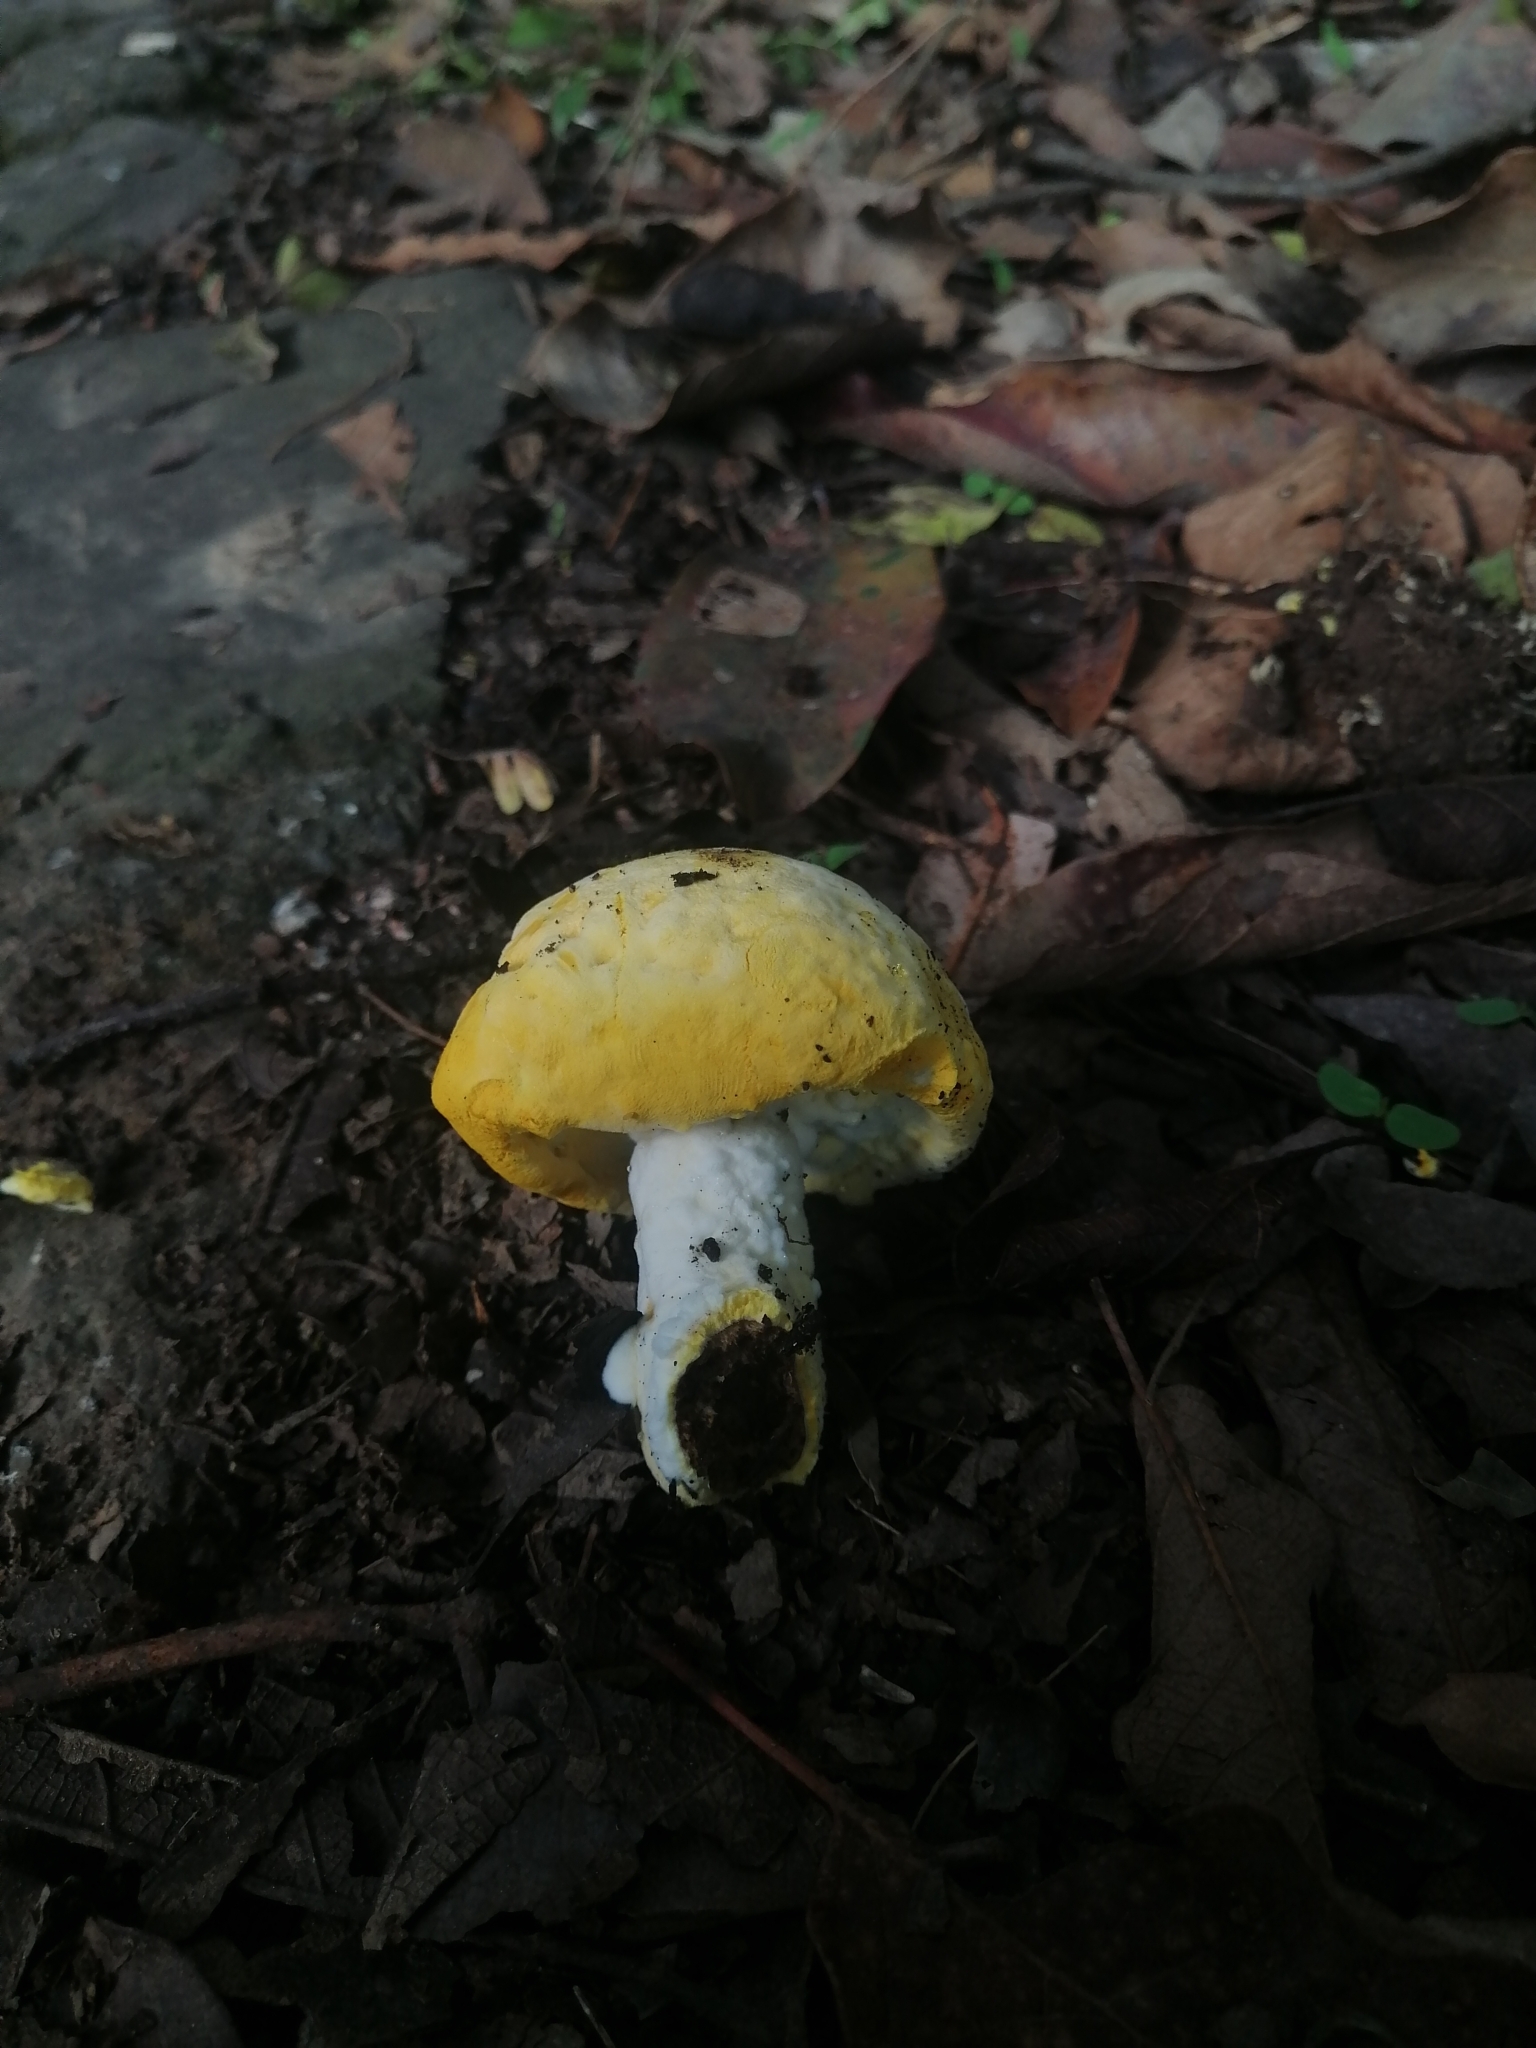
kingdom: Fungi
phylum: Ascomycota
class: Sordariomycetes
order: Hypocreales
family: Hypocreaceae
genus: Hypomyces
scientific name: Hypomyces chrysospermus
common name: Bolete mould
